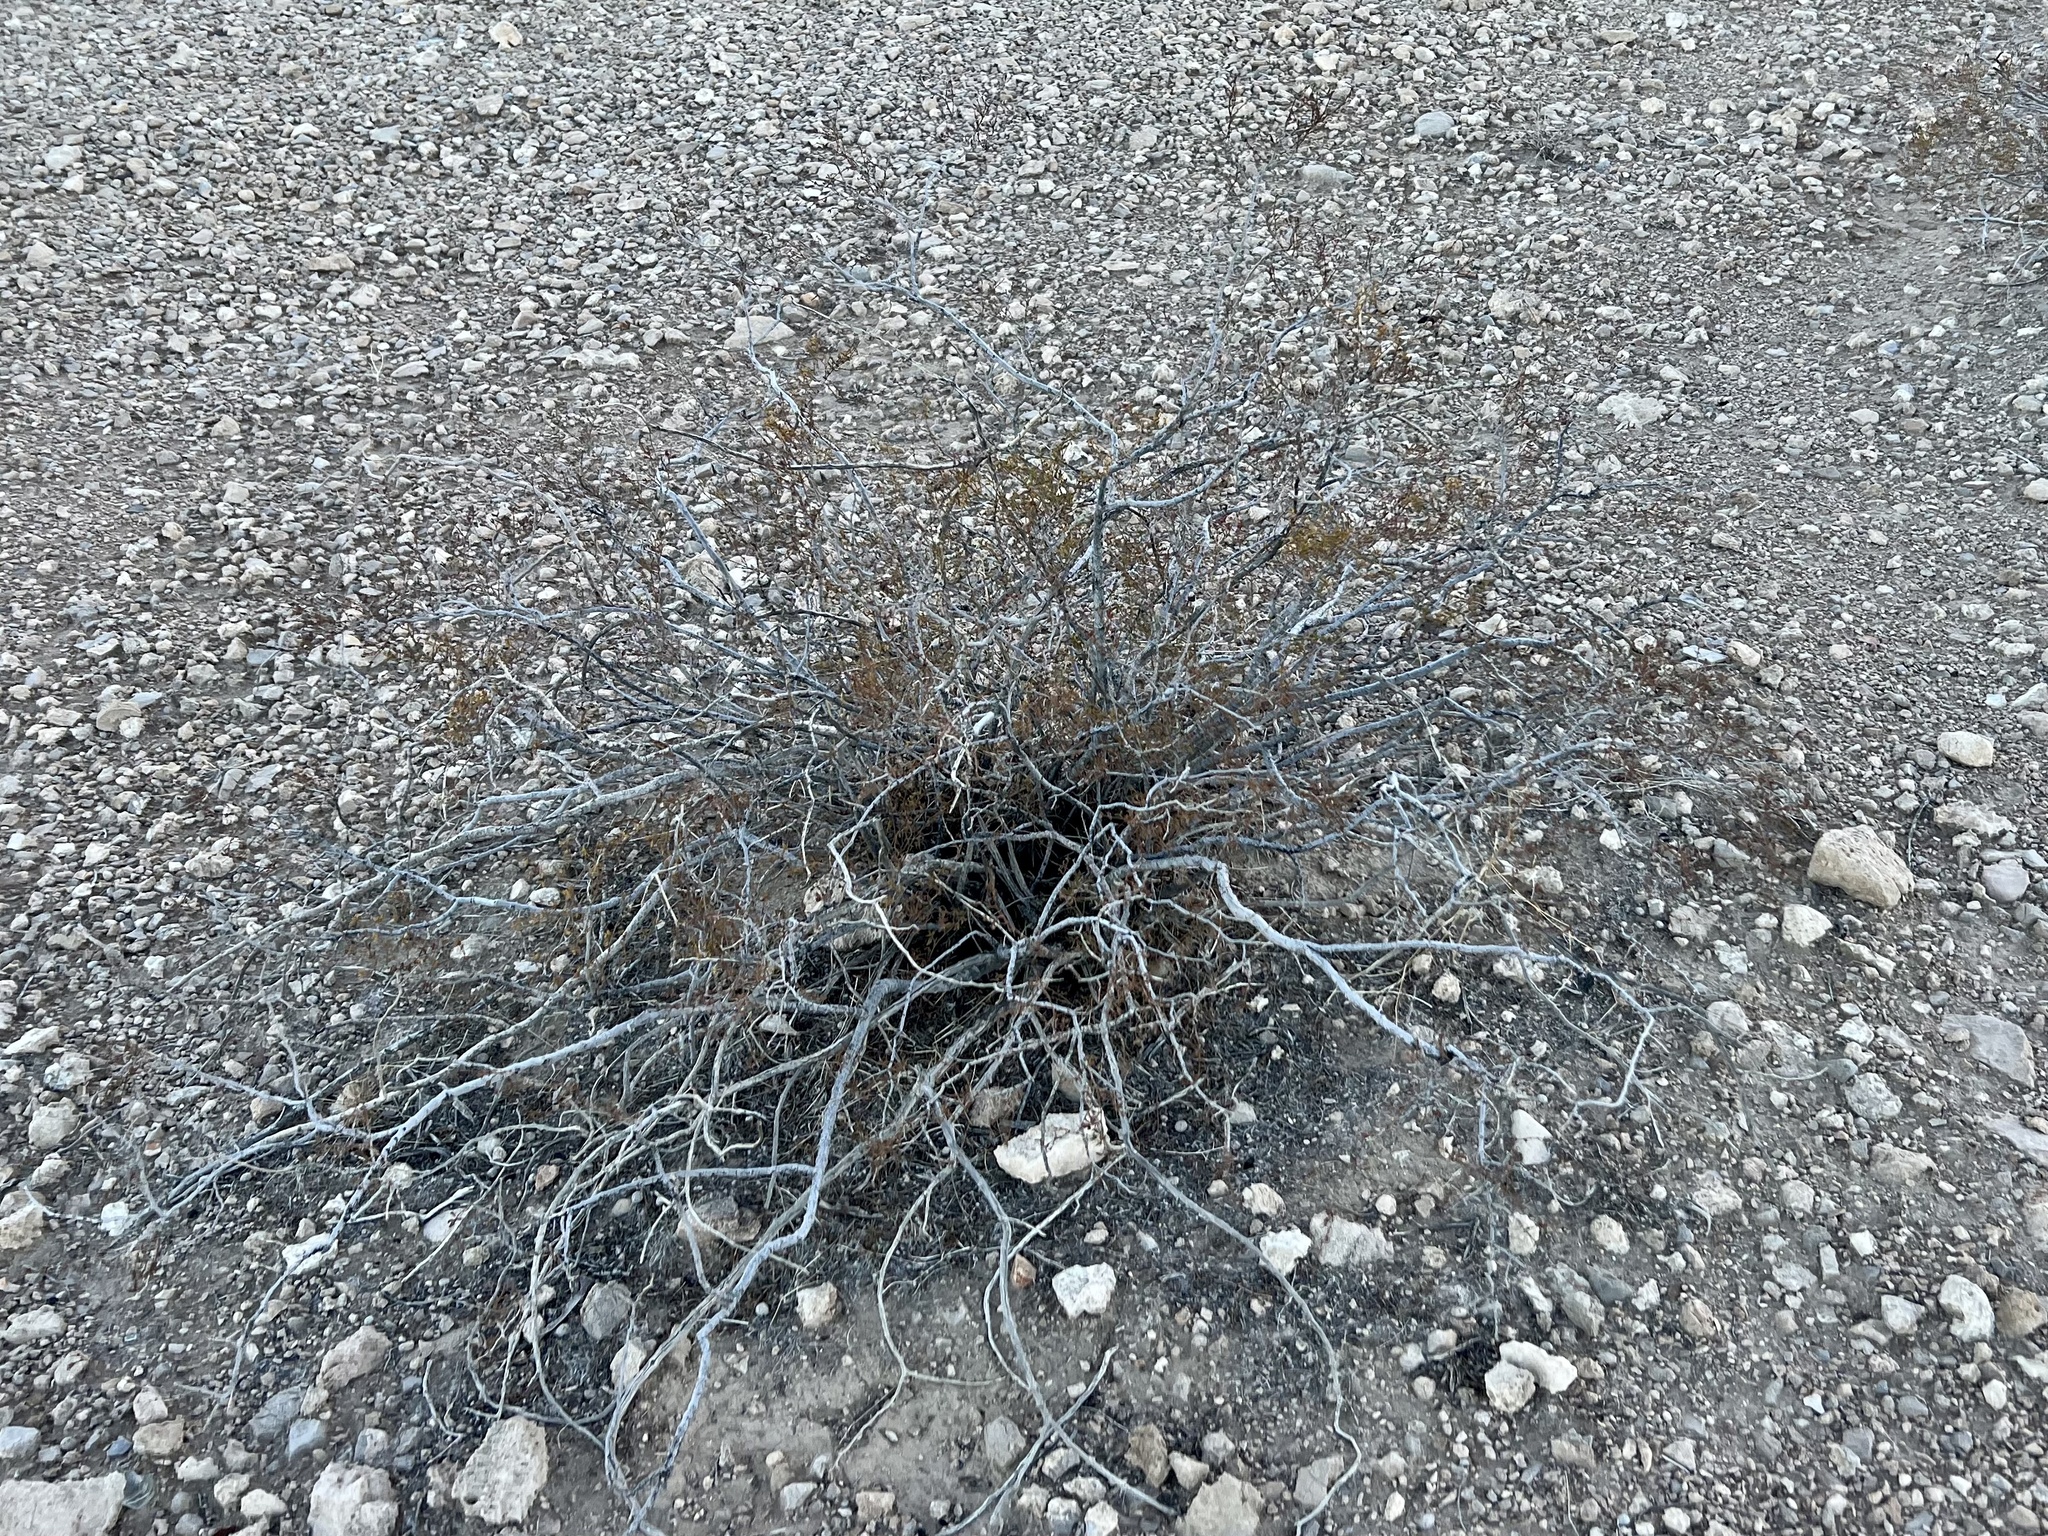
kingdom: Plantae
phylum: Tracheophyta
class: Magnoliopsida
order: Zygophyllales
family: Zygophyllaceae
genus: Larrea
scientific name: Larrea tridentata
